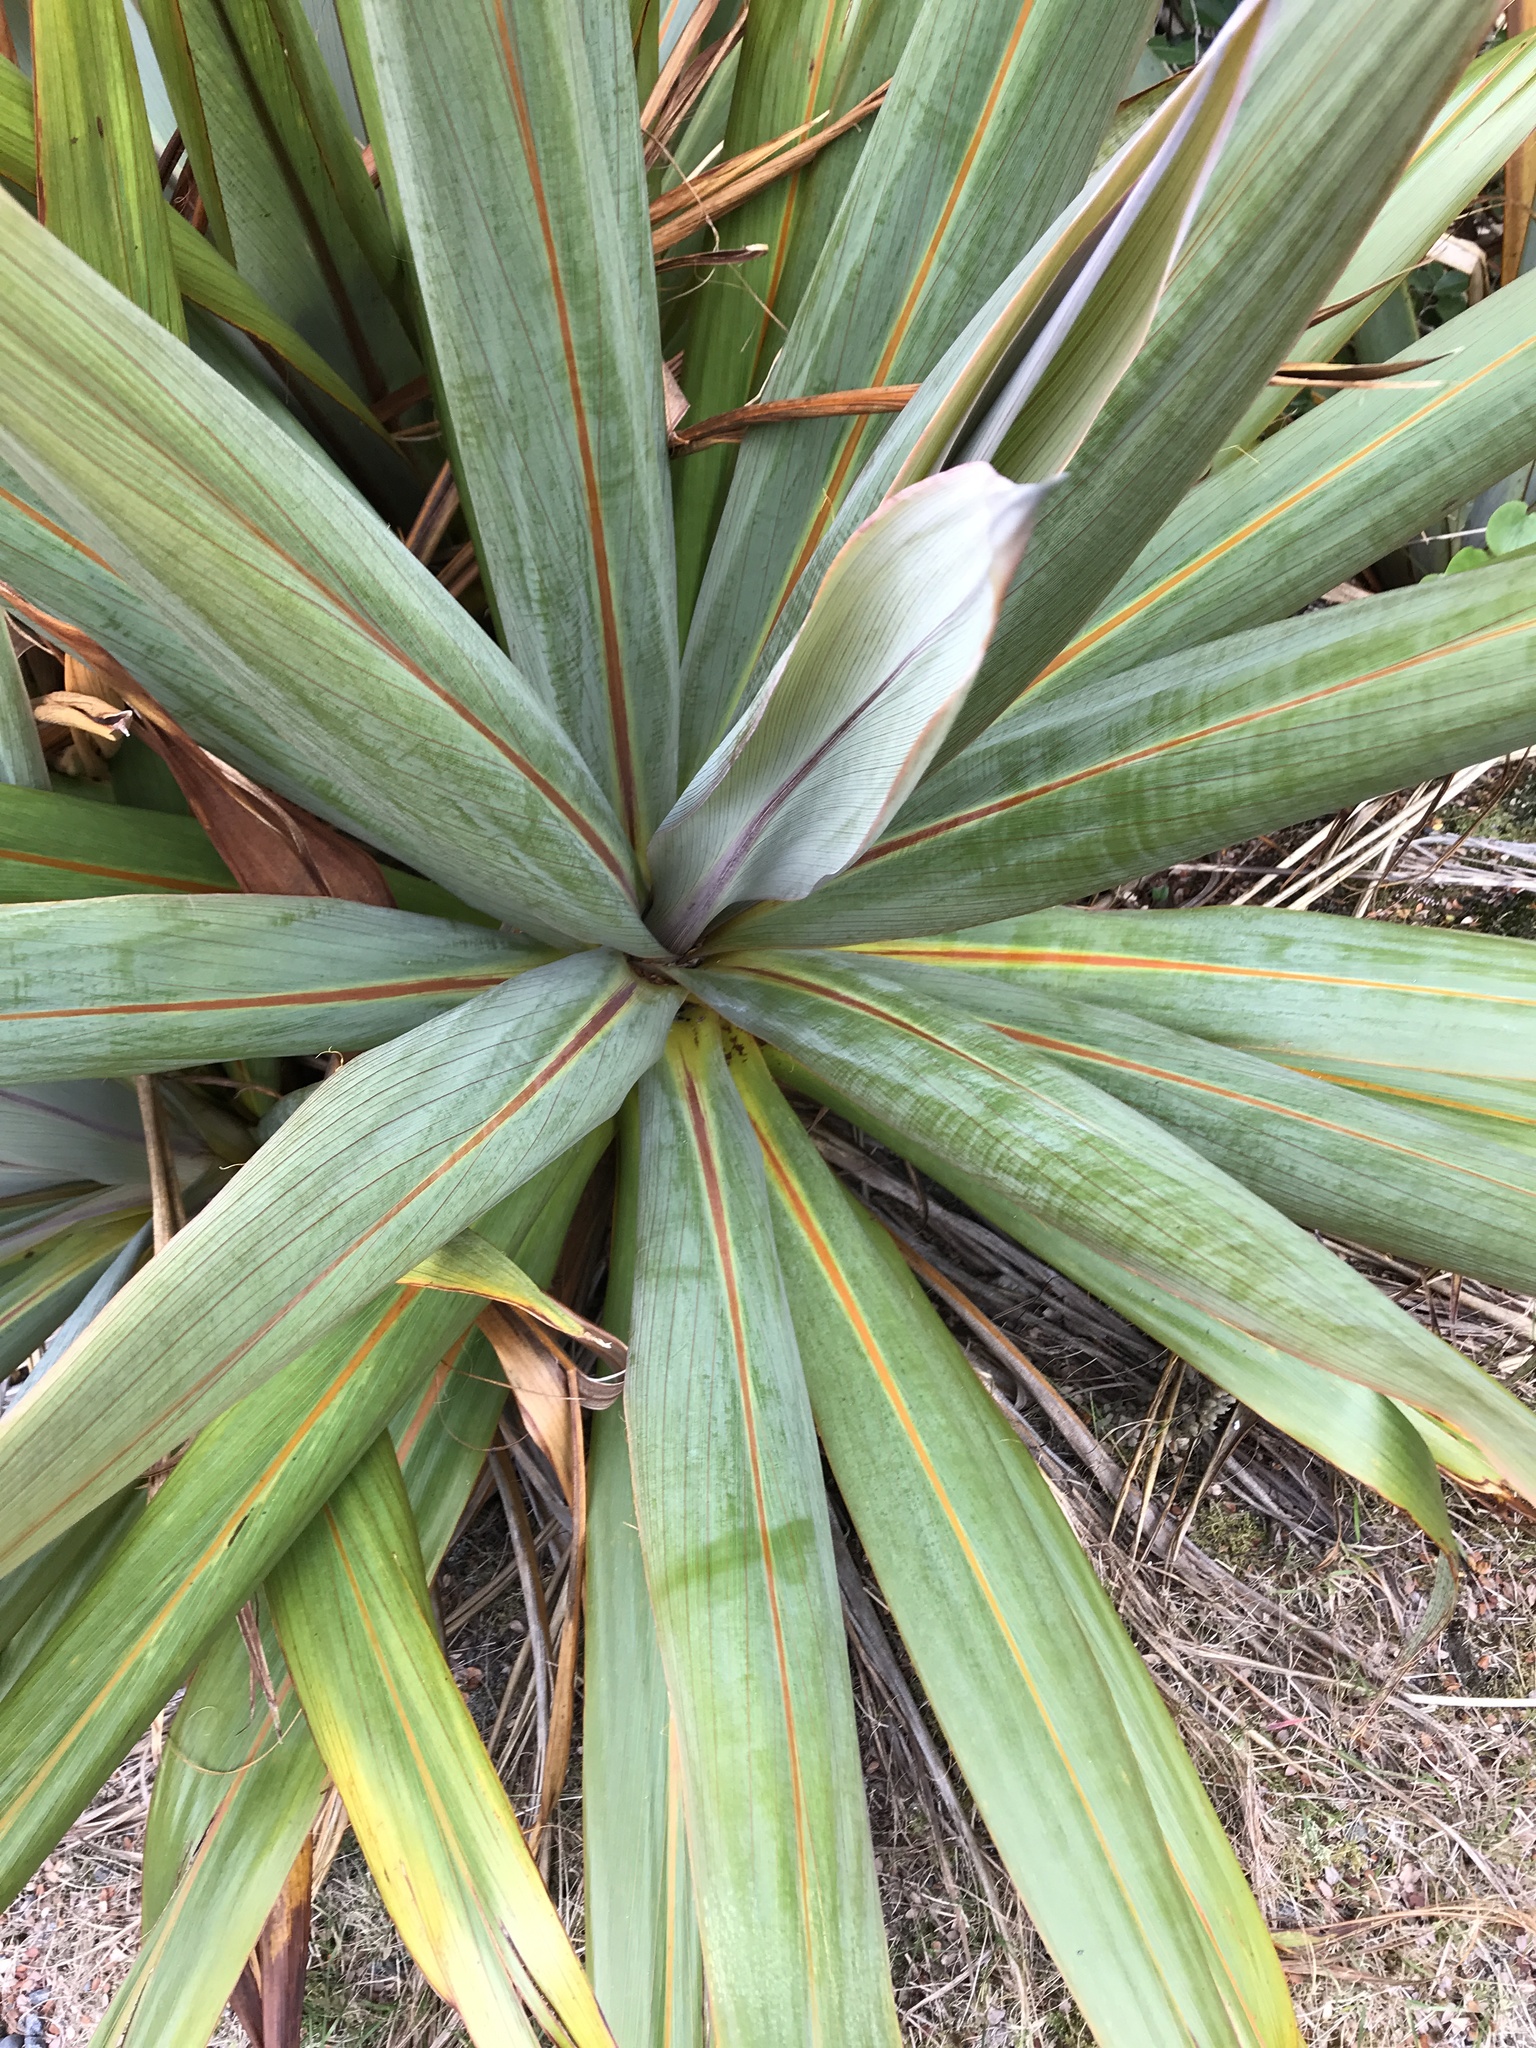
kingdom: Plantae
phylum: Tracheophyta
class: Liliopsida
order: Asparagales
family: Asparagaceae
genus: Cordyline
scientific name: Cordyline indivisa
